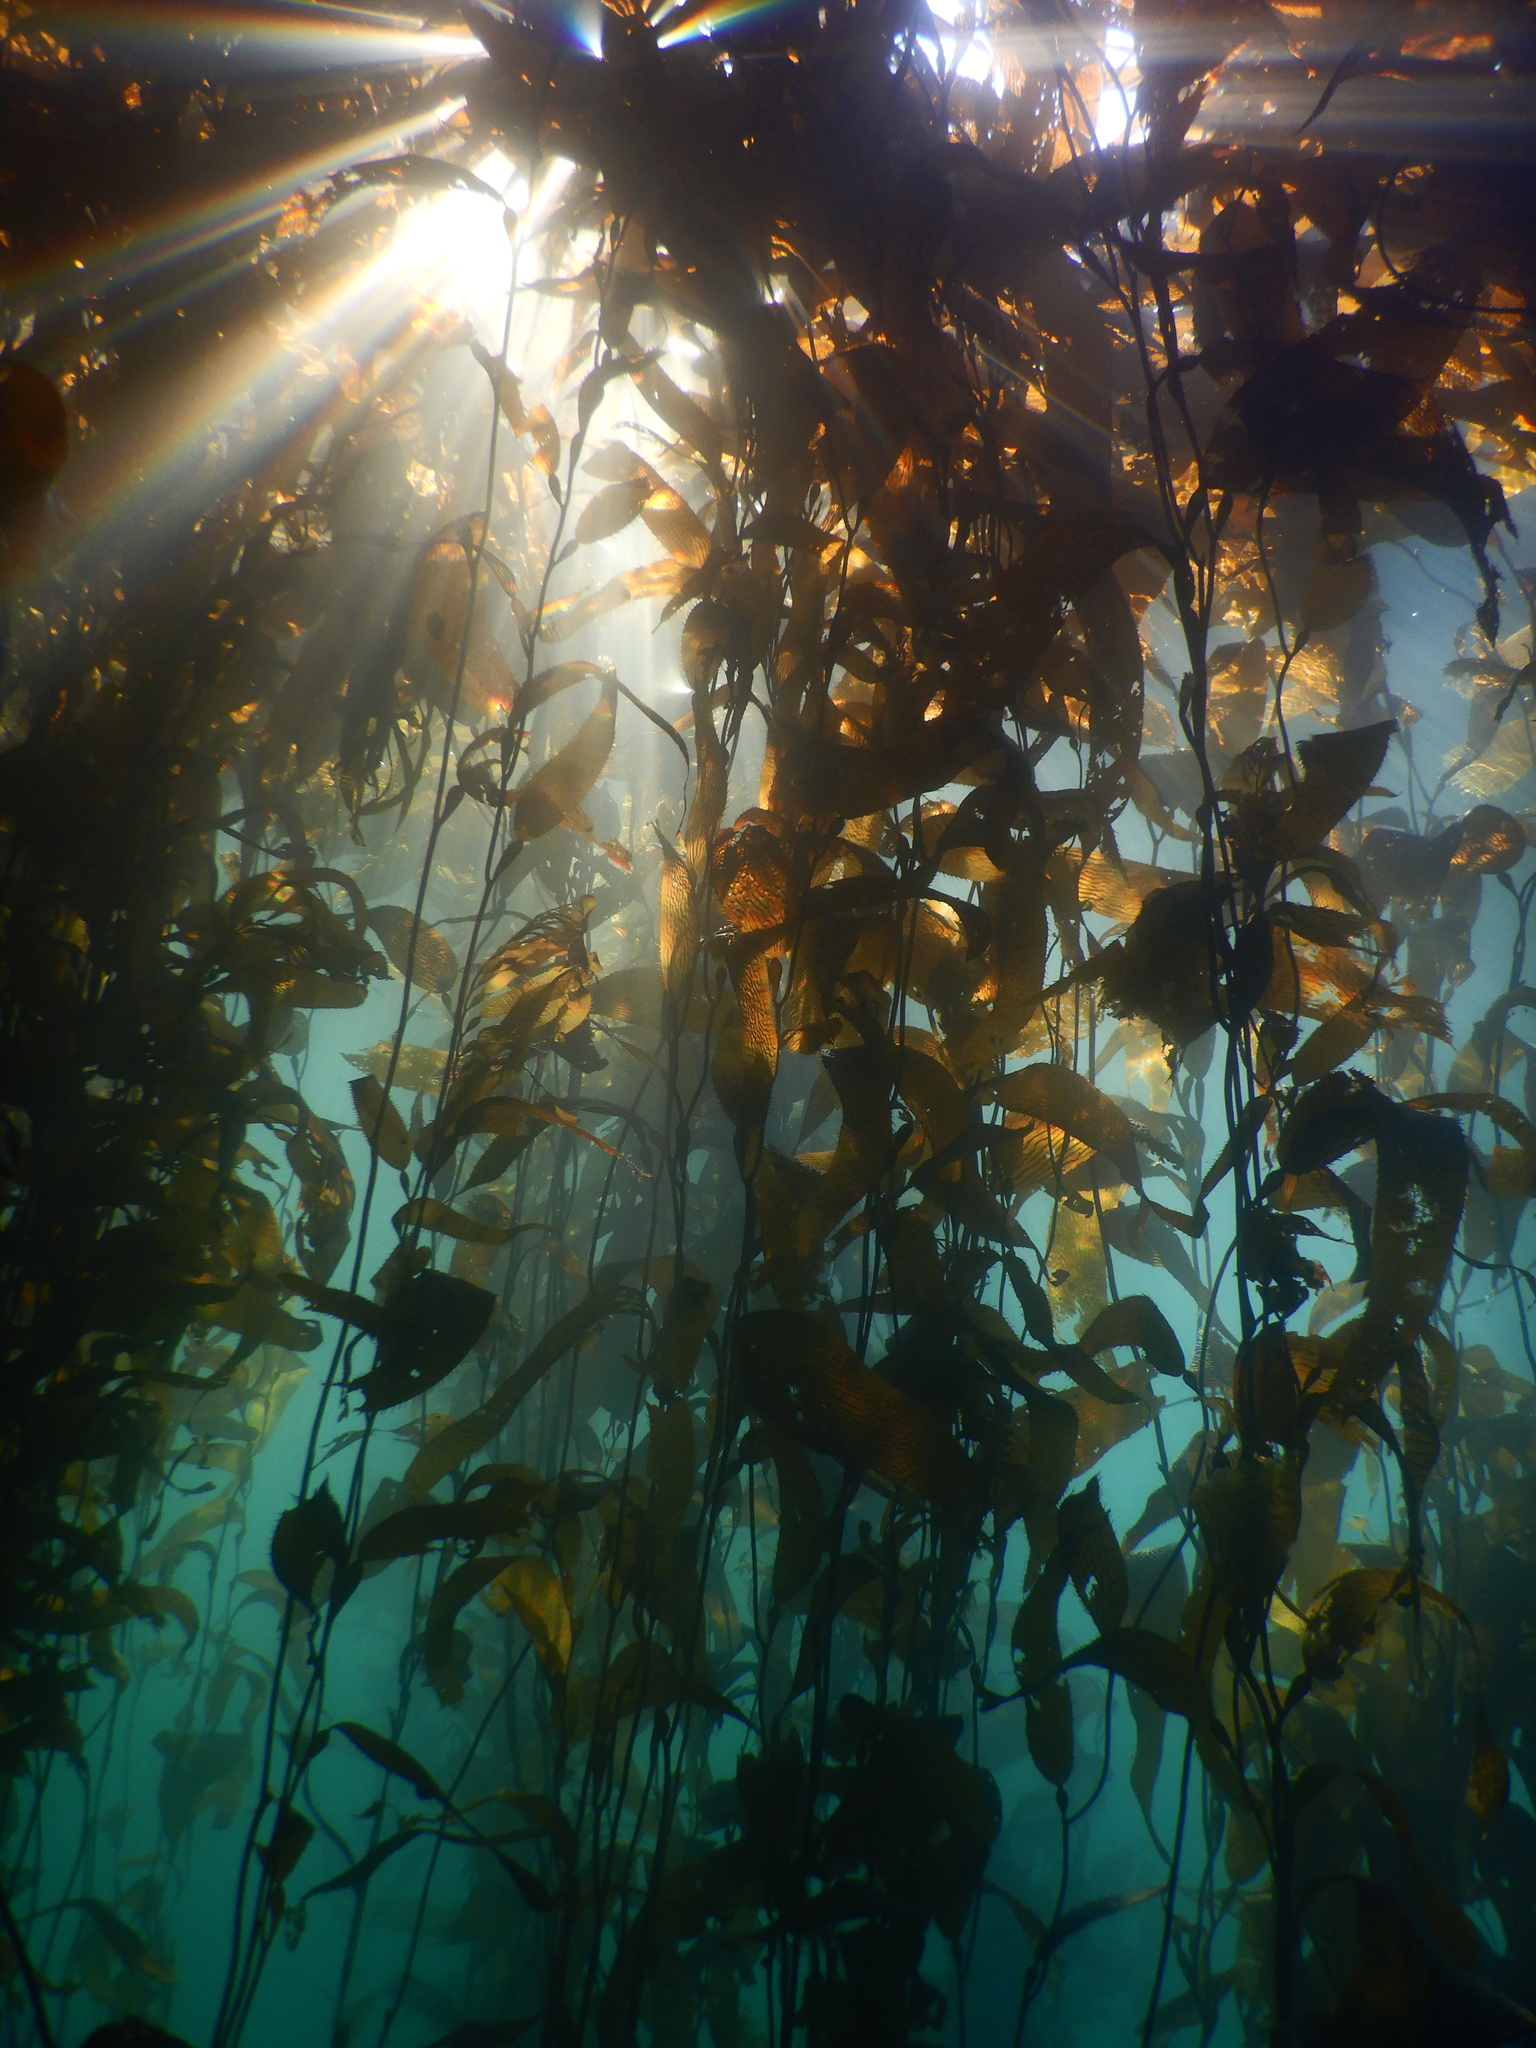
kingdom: Chromista
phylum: Ochrophyta
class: Phaeophyceae
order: Laminariales
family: Laminariaceae
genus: Macrocystis
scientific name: Macrocystis pyrifera
